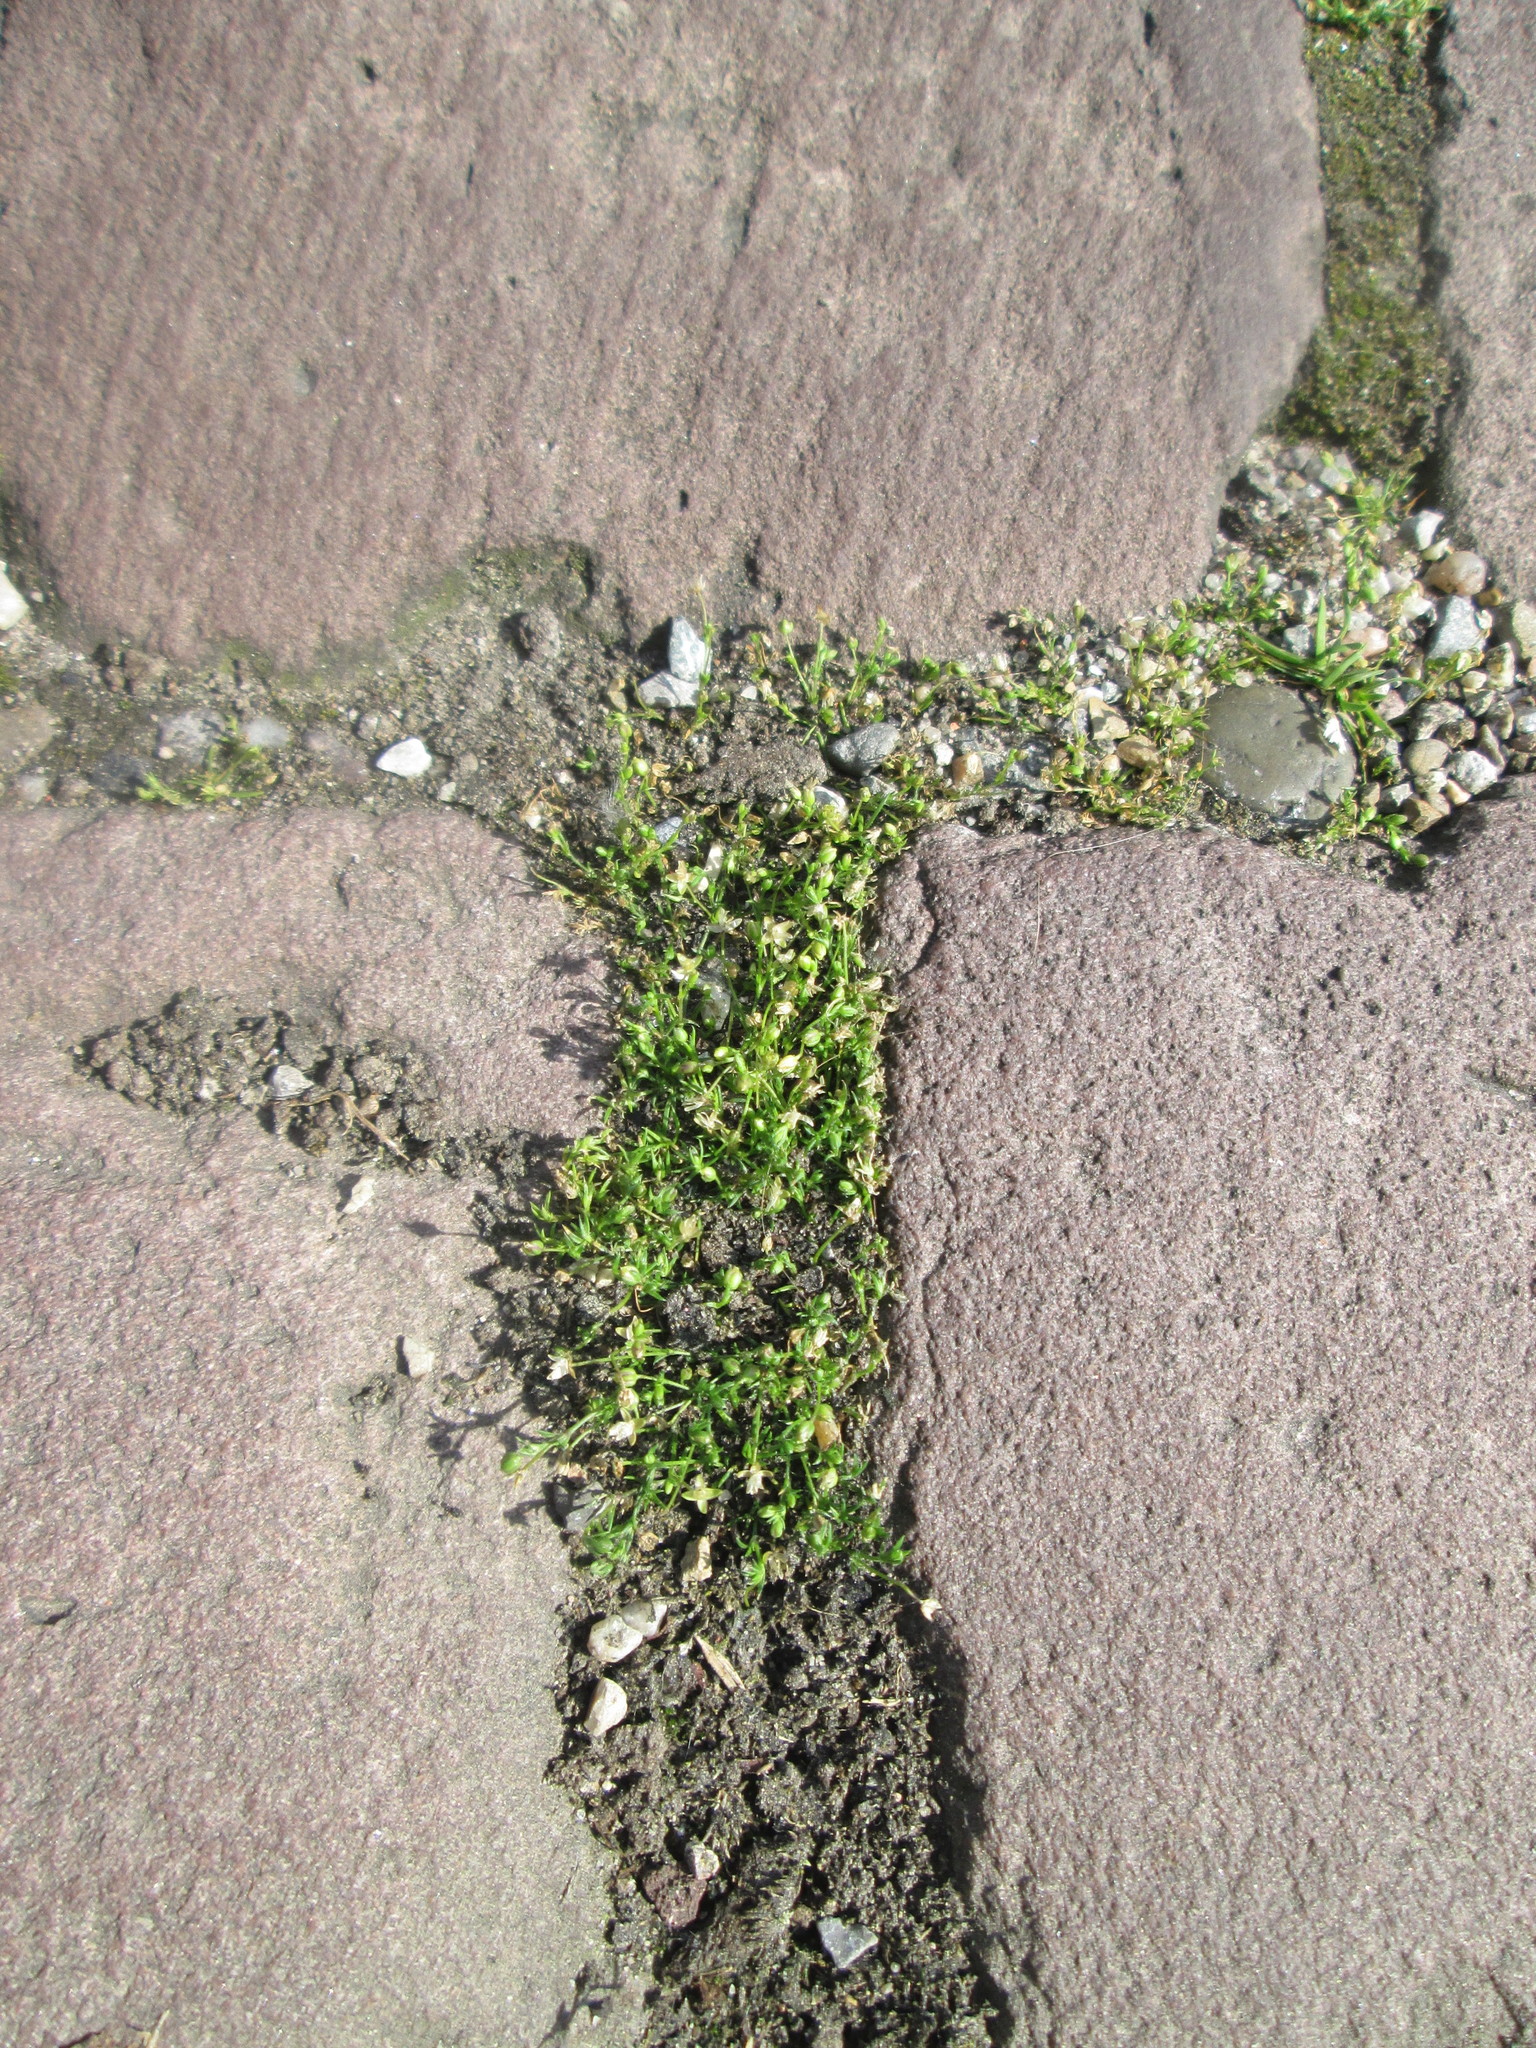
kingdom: Plantae
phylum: Tracheophyta
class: Magnoliopsida
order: Caryophyllales
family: Caryophyllaceae
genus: Sagina
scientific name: Sagina procumbens
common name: Procumbent pearlwort
